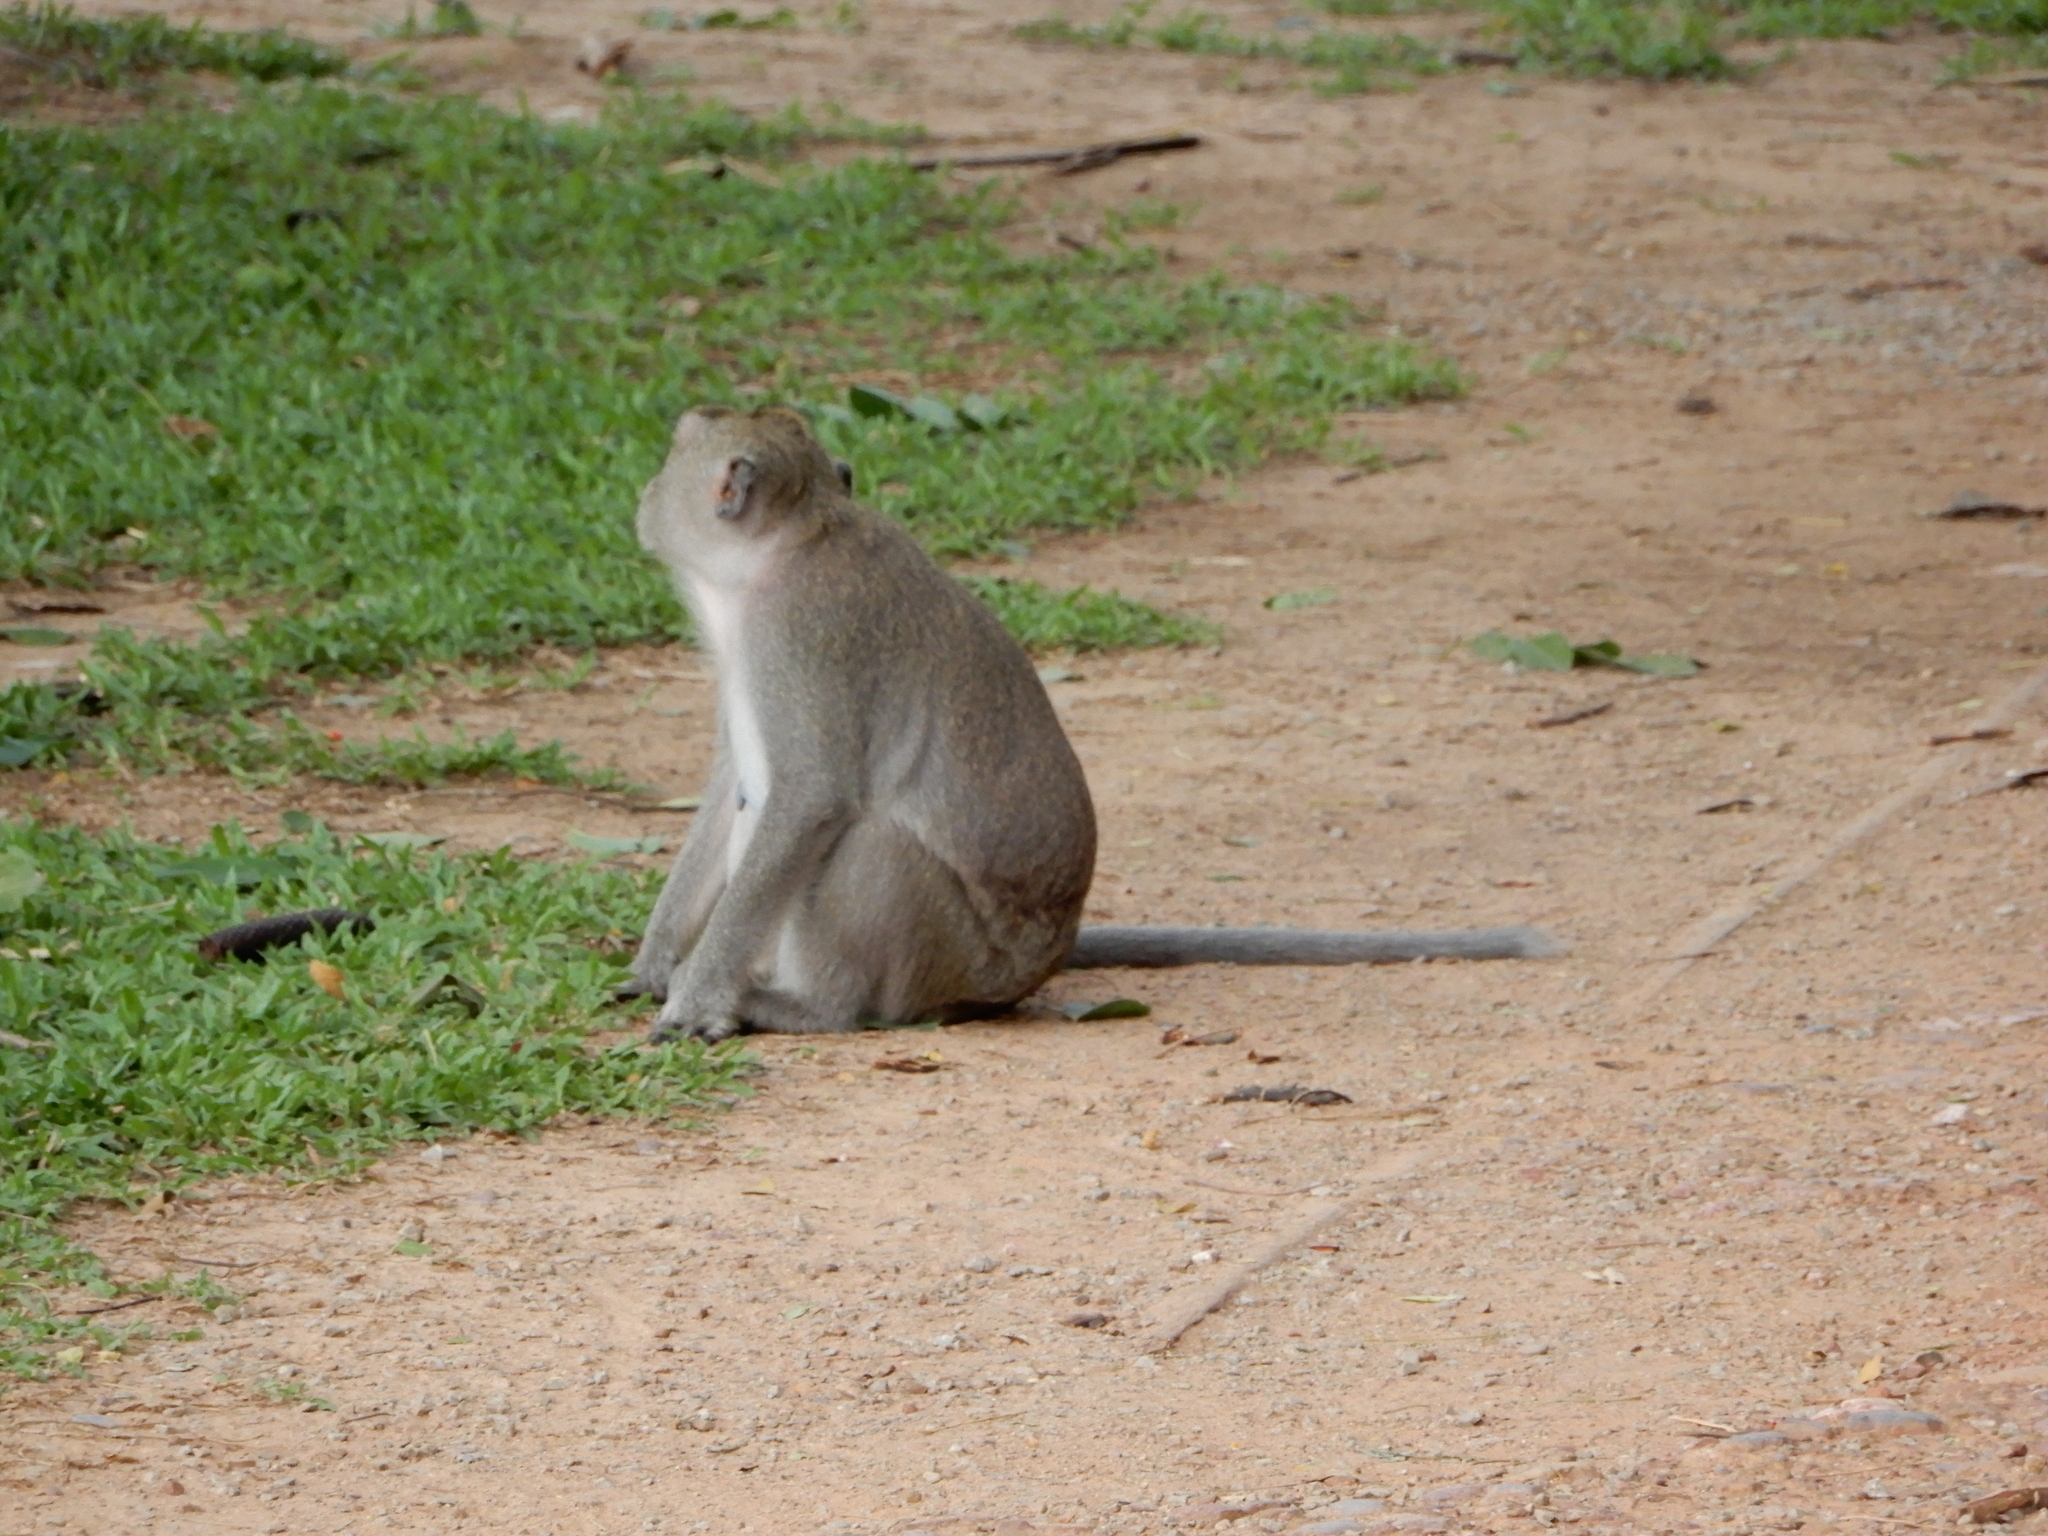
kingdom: Animalia
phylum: Chordata
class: Mammalia
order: Primates
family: Cercopithecidae
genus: Macaca
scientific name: Macaca fascicularis
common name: Crab-eating macaque
